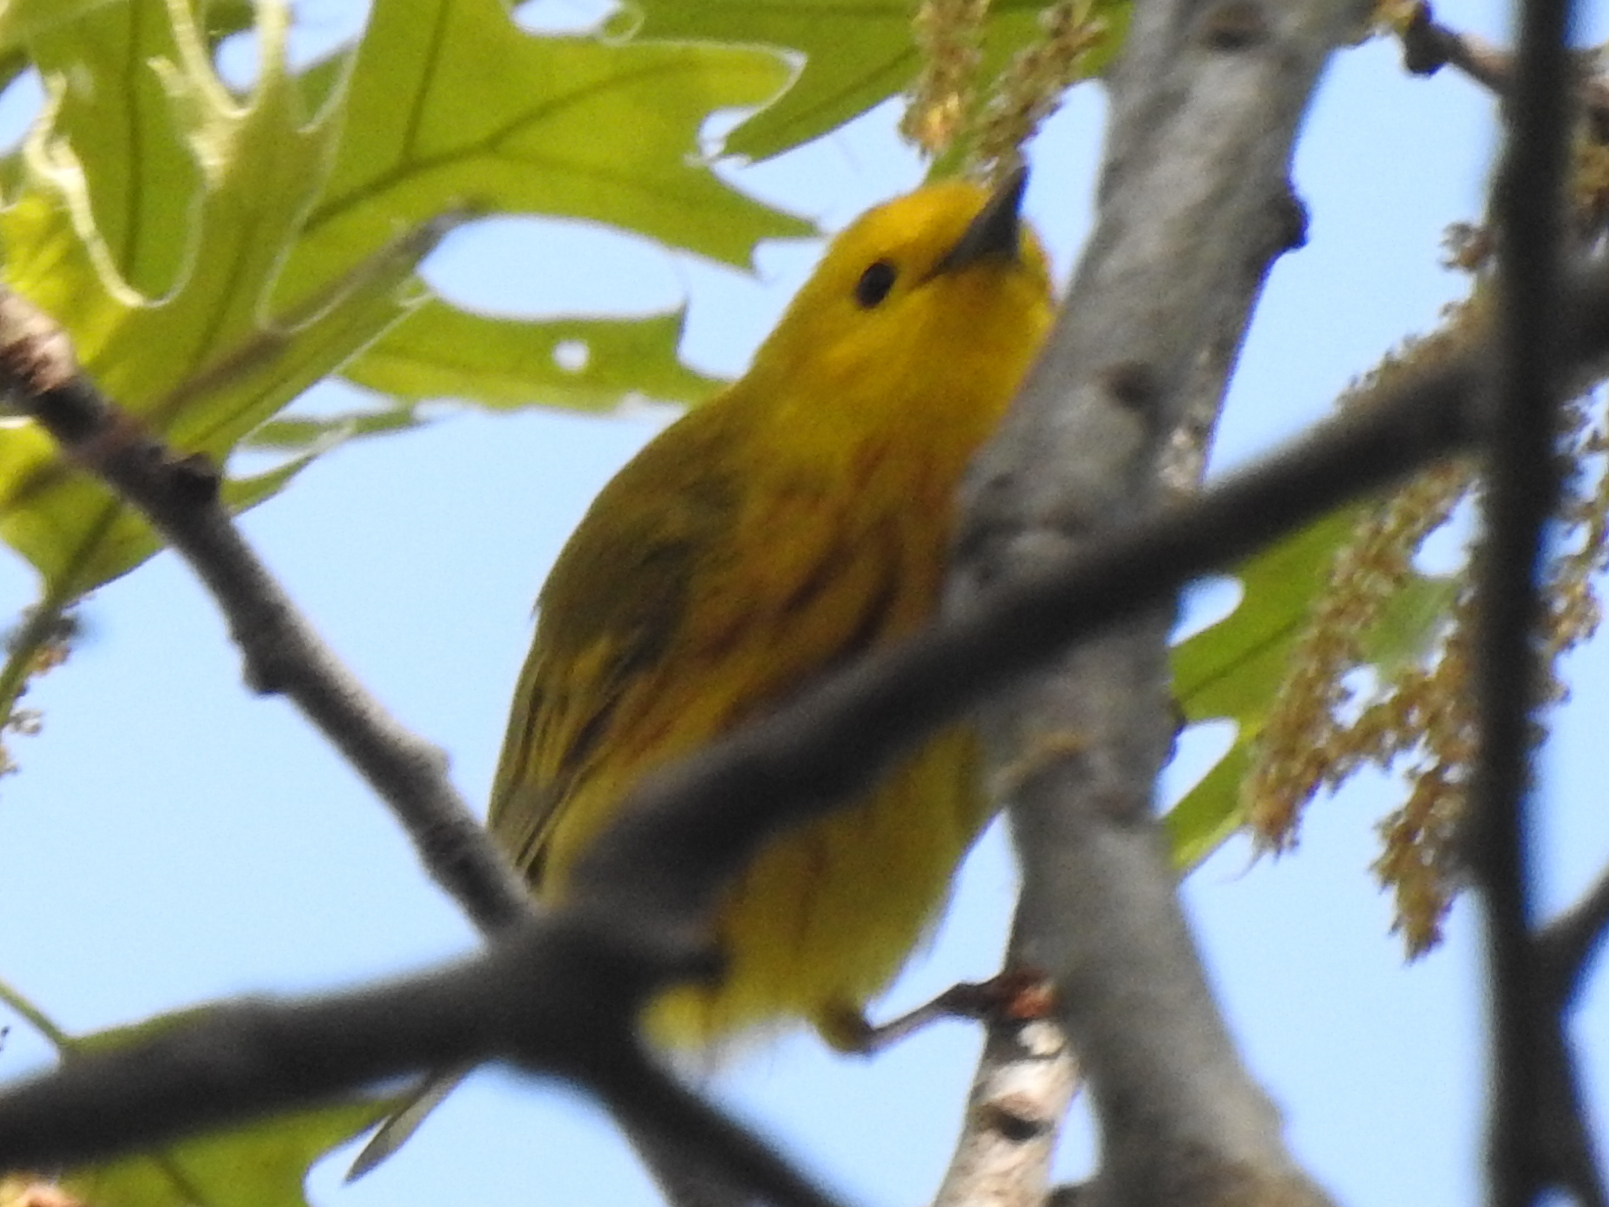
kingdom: Animalia
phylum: Chordata
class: Aves
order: Passeriformes
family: Parulidae
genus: Setophaga
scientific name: Setophaga petechia
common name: Yellow warbler
